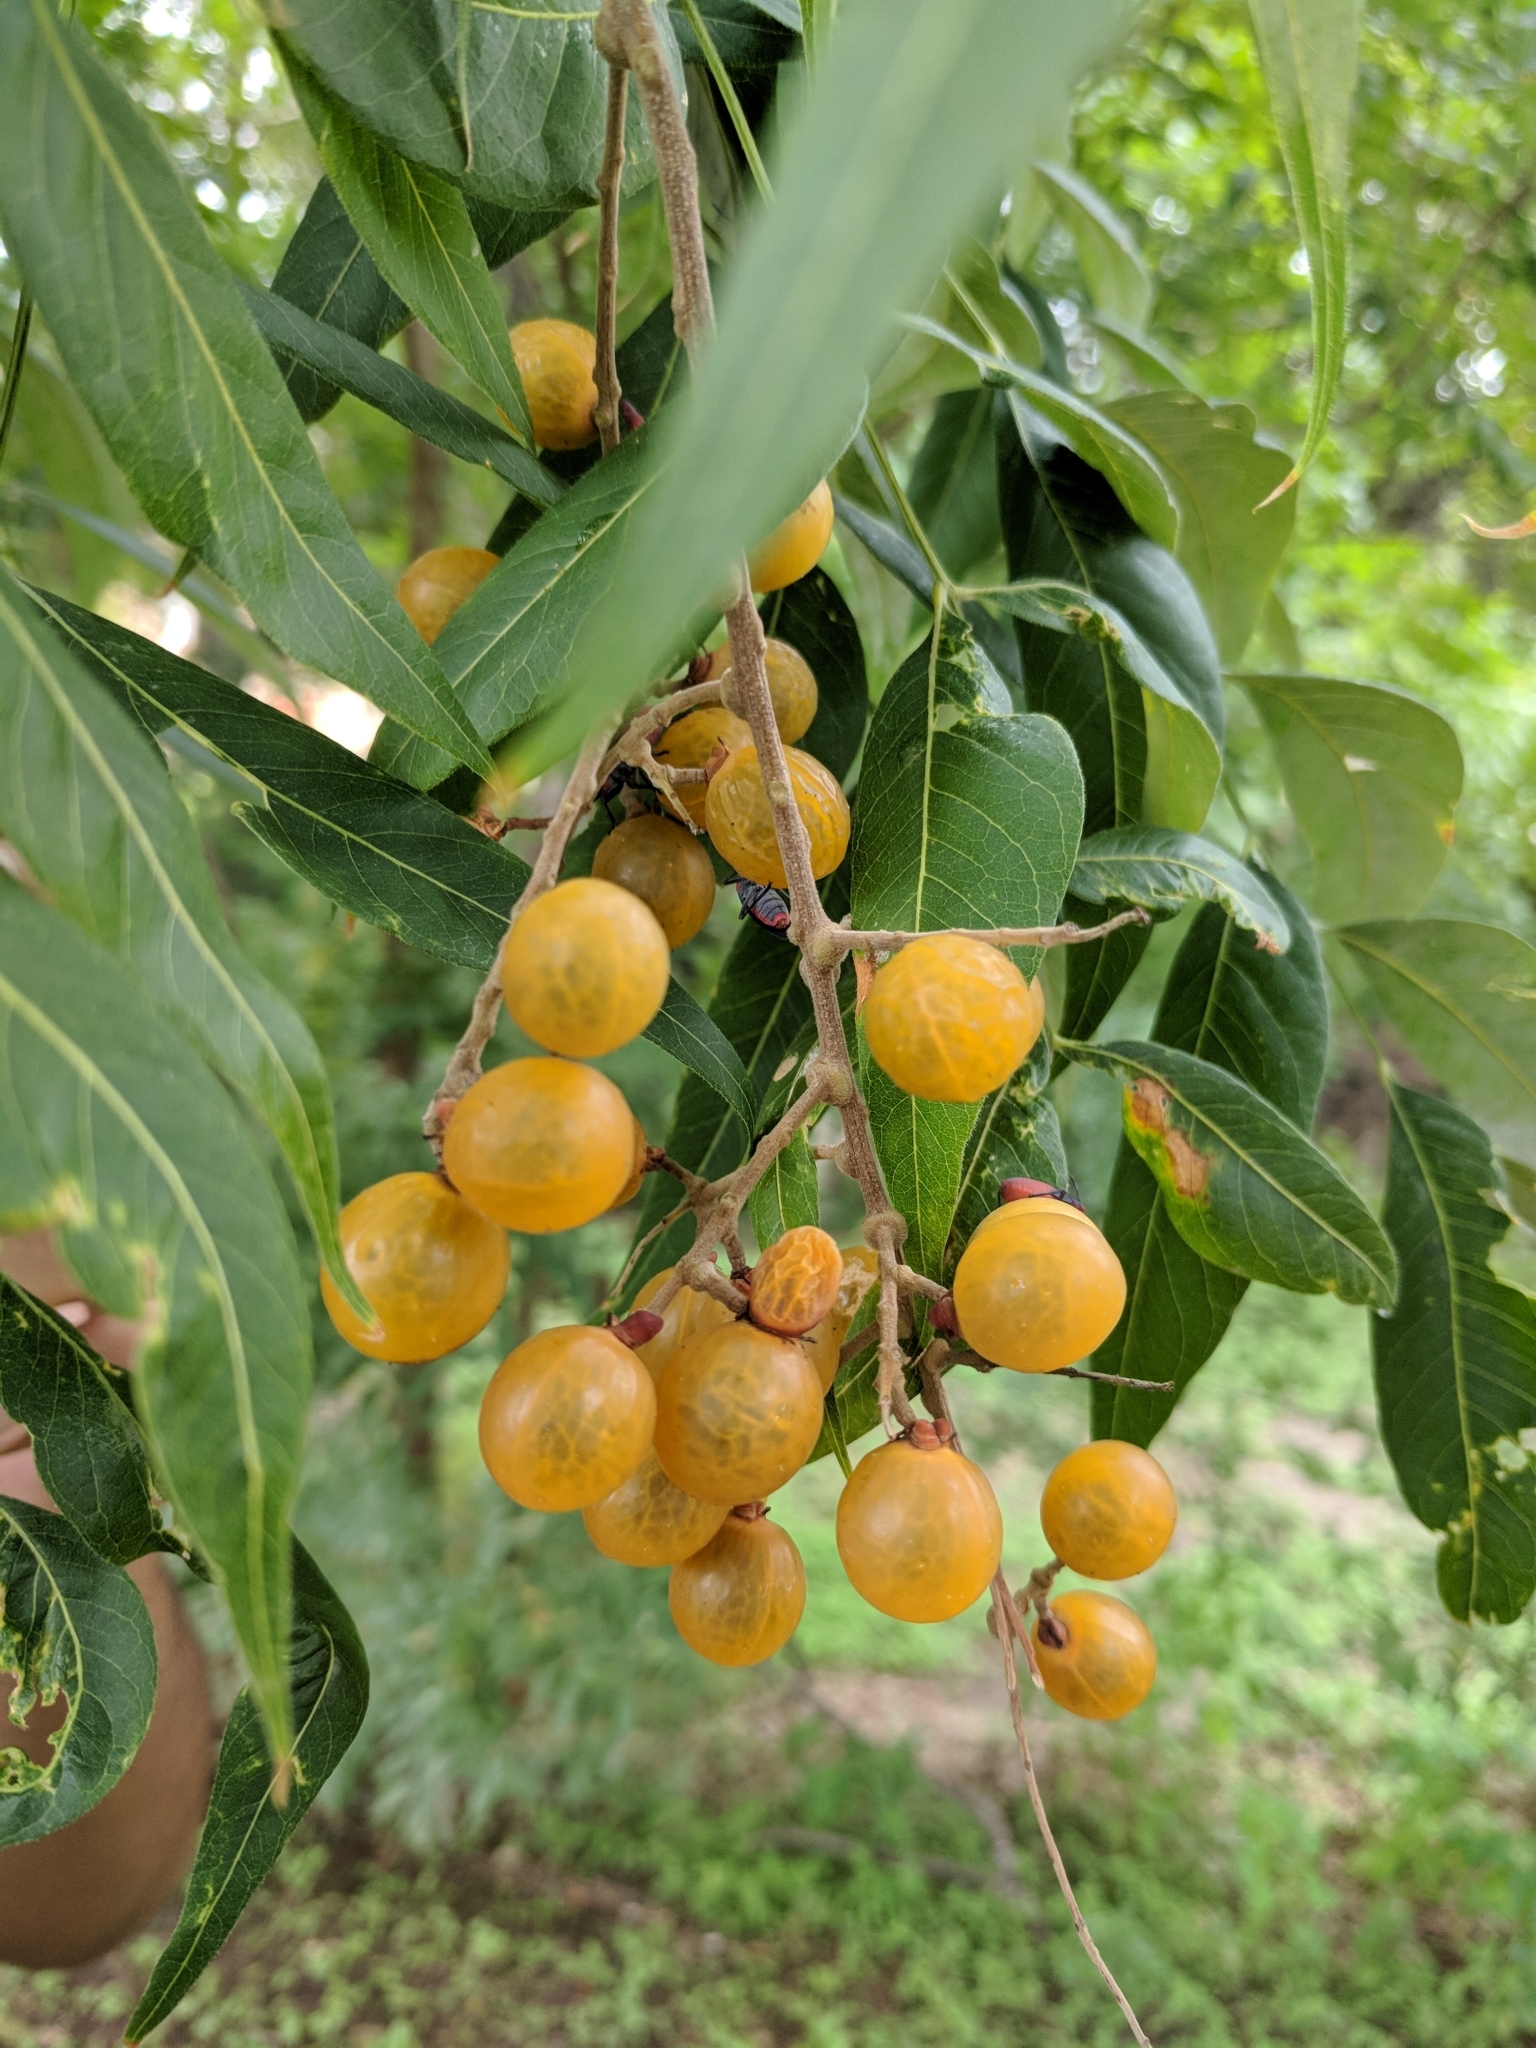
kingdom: Plantae
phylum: Tracheophyta
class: Magnoliopsida
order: Sapindales
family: Sapindaceae
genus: Sapindus
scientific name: Sapindus drummondii
